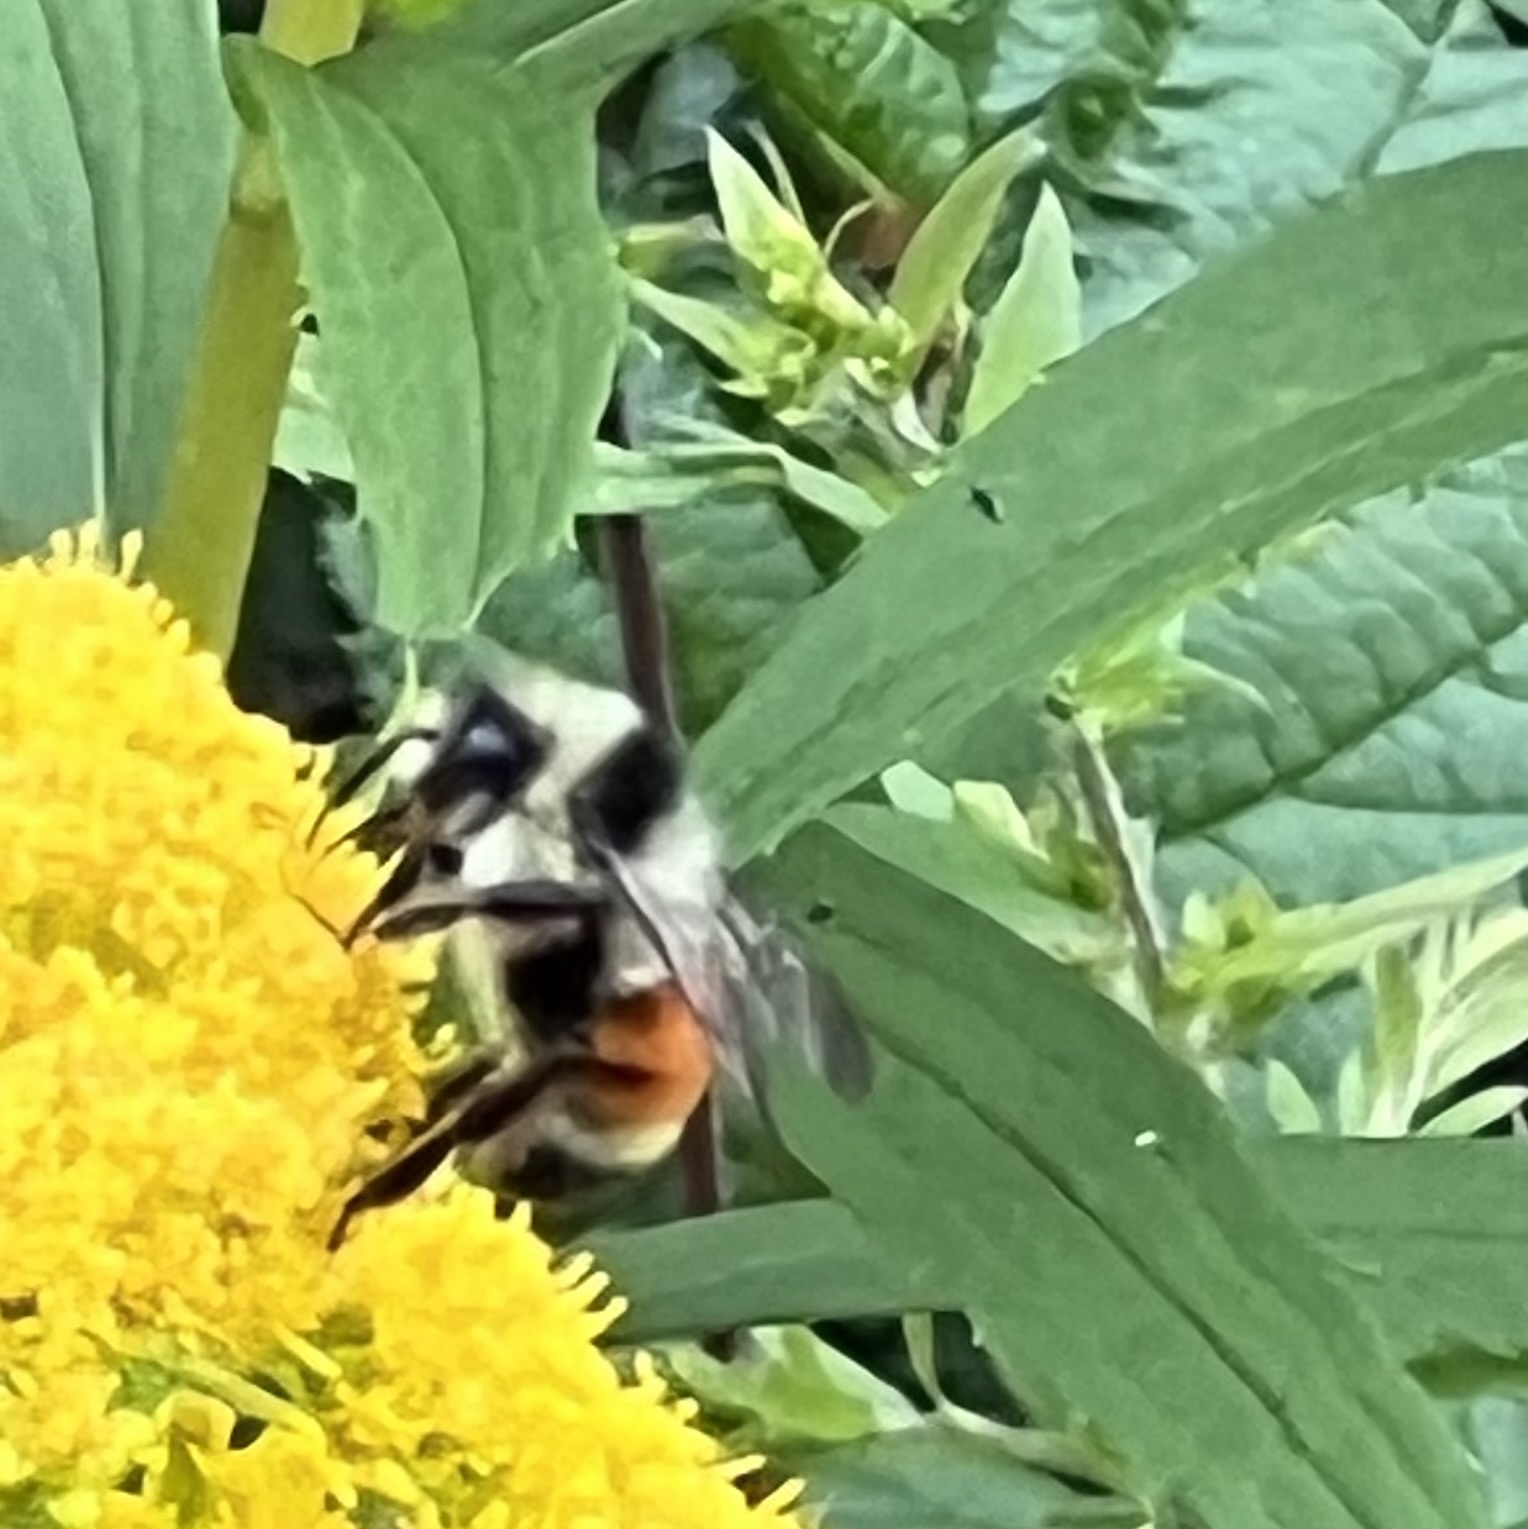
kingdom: Animalia
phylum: Arthropoda
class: Insecta
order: Hymenoptera
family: Apidae
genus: Bombus
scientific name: Bombus ternarius
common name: Tri-colored bumble bee
